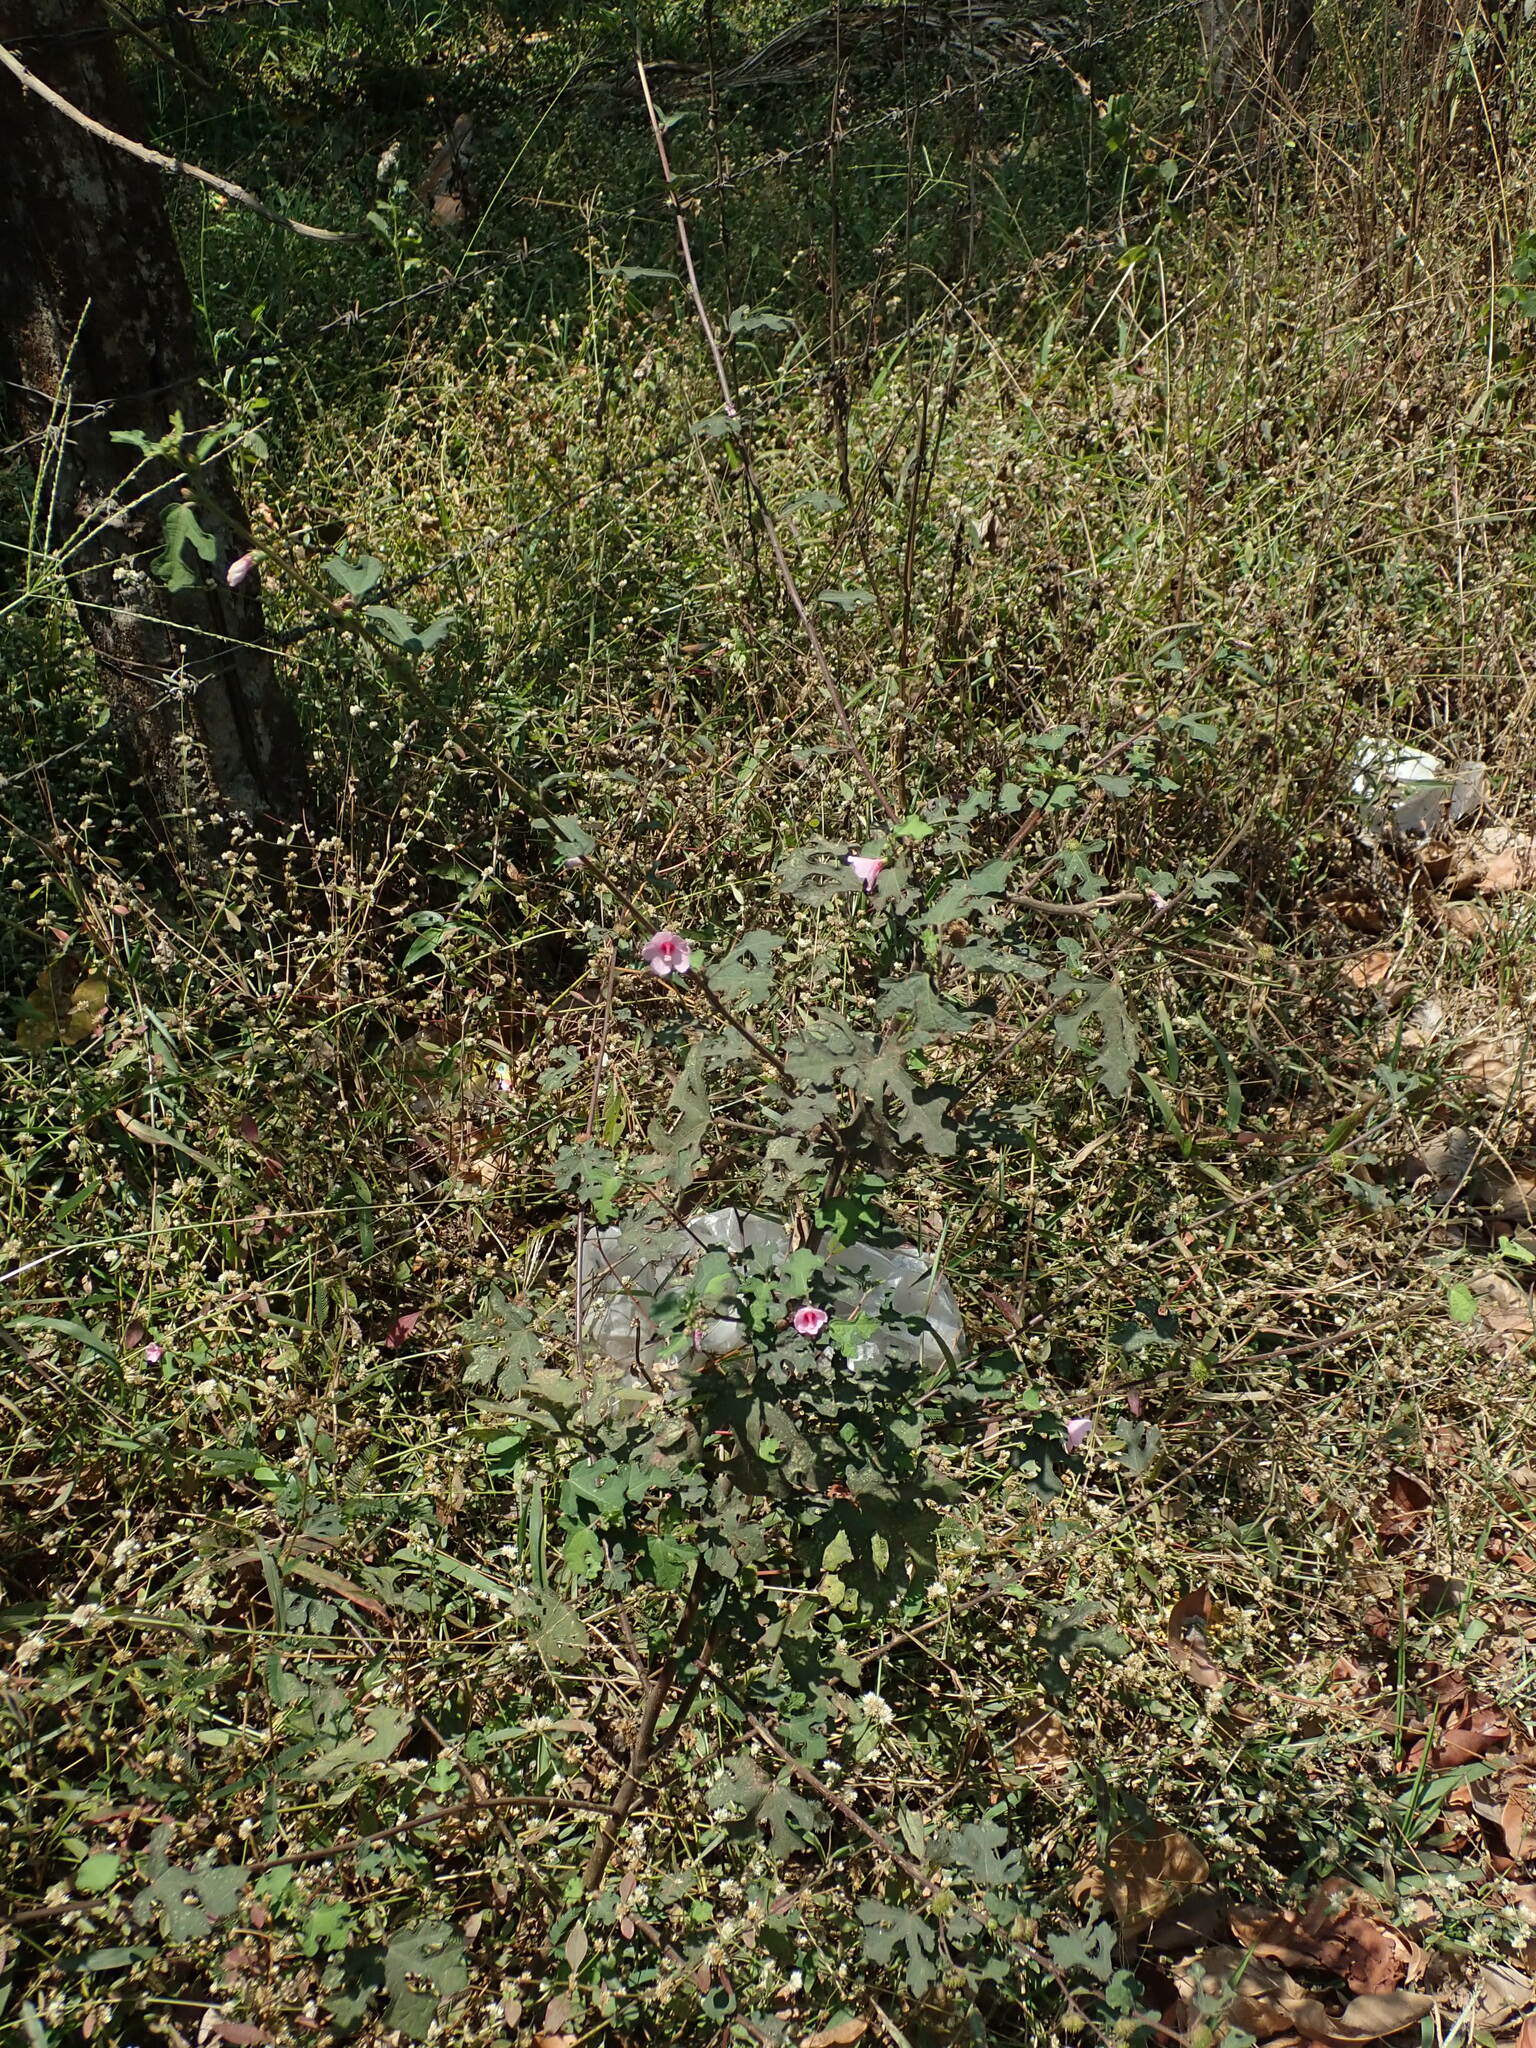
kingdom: Plantae
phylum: Tracheophyta
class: Magnoliopsida
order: Malvales
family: Malvaceae
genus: Urena
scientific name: Urena lobata
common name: Caesarweed
